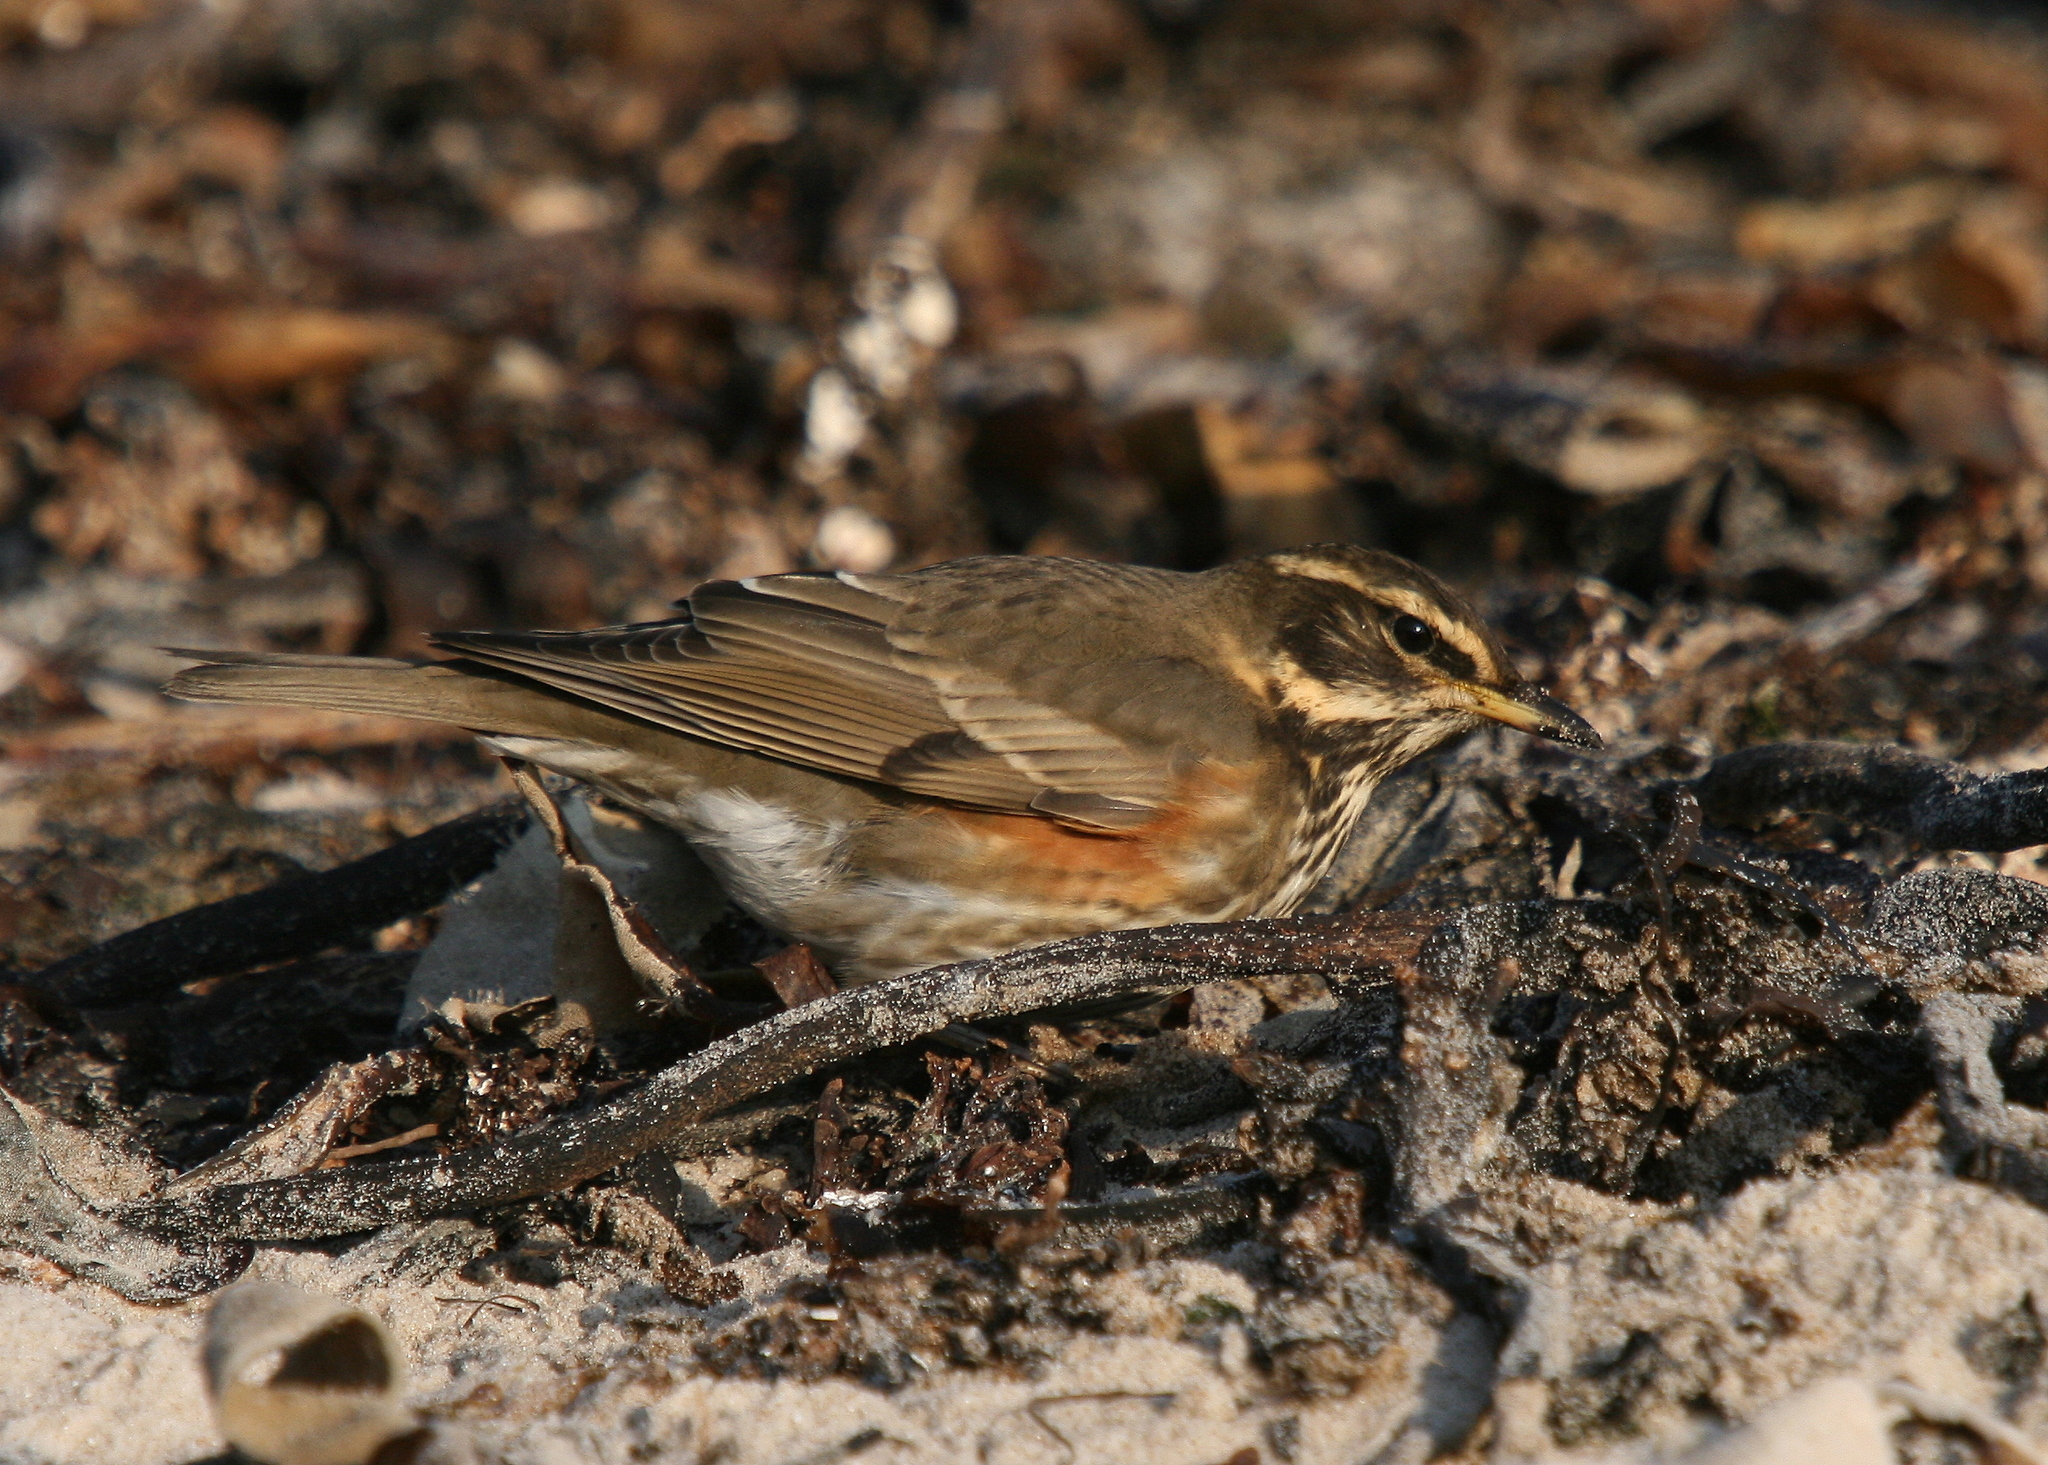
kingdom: Animalia
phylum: Chordata
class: Aves
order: Passeriformes
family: Turdidae
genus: Turdus
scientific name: Turdus iliacus
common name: Redwing
